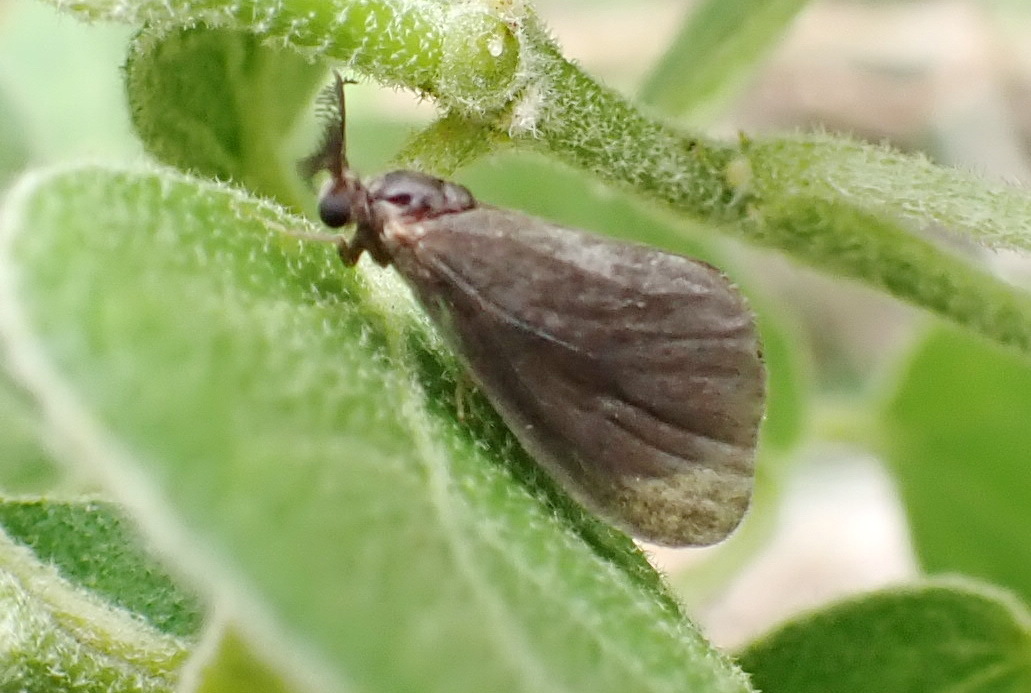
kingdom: Animalia
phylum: Arthropoda
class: Insecta
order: Lepidoptera
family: Psychidae
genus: Cryptothelea
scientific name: Cryptothelea gloverii
